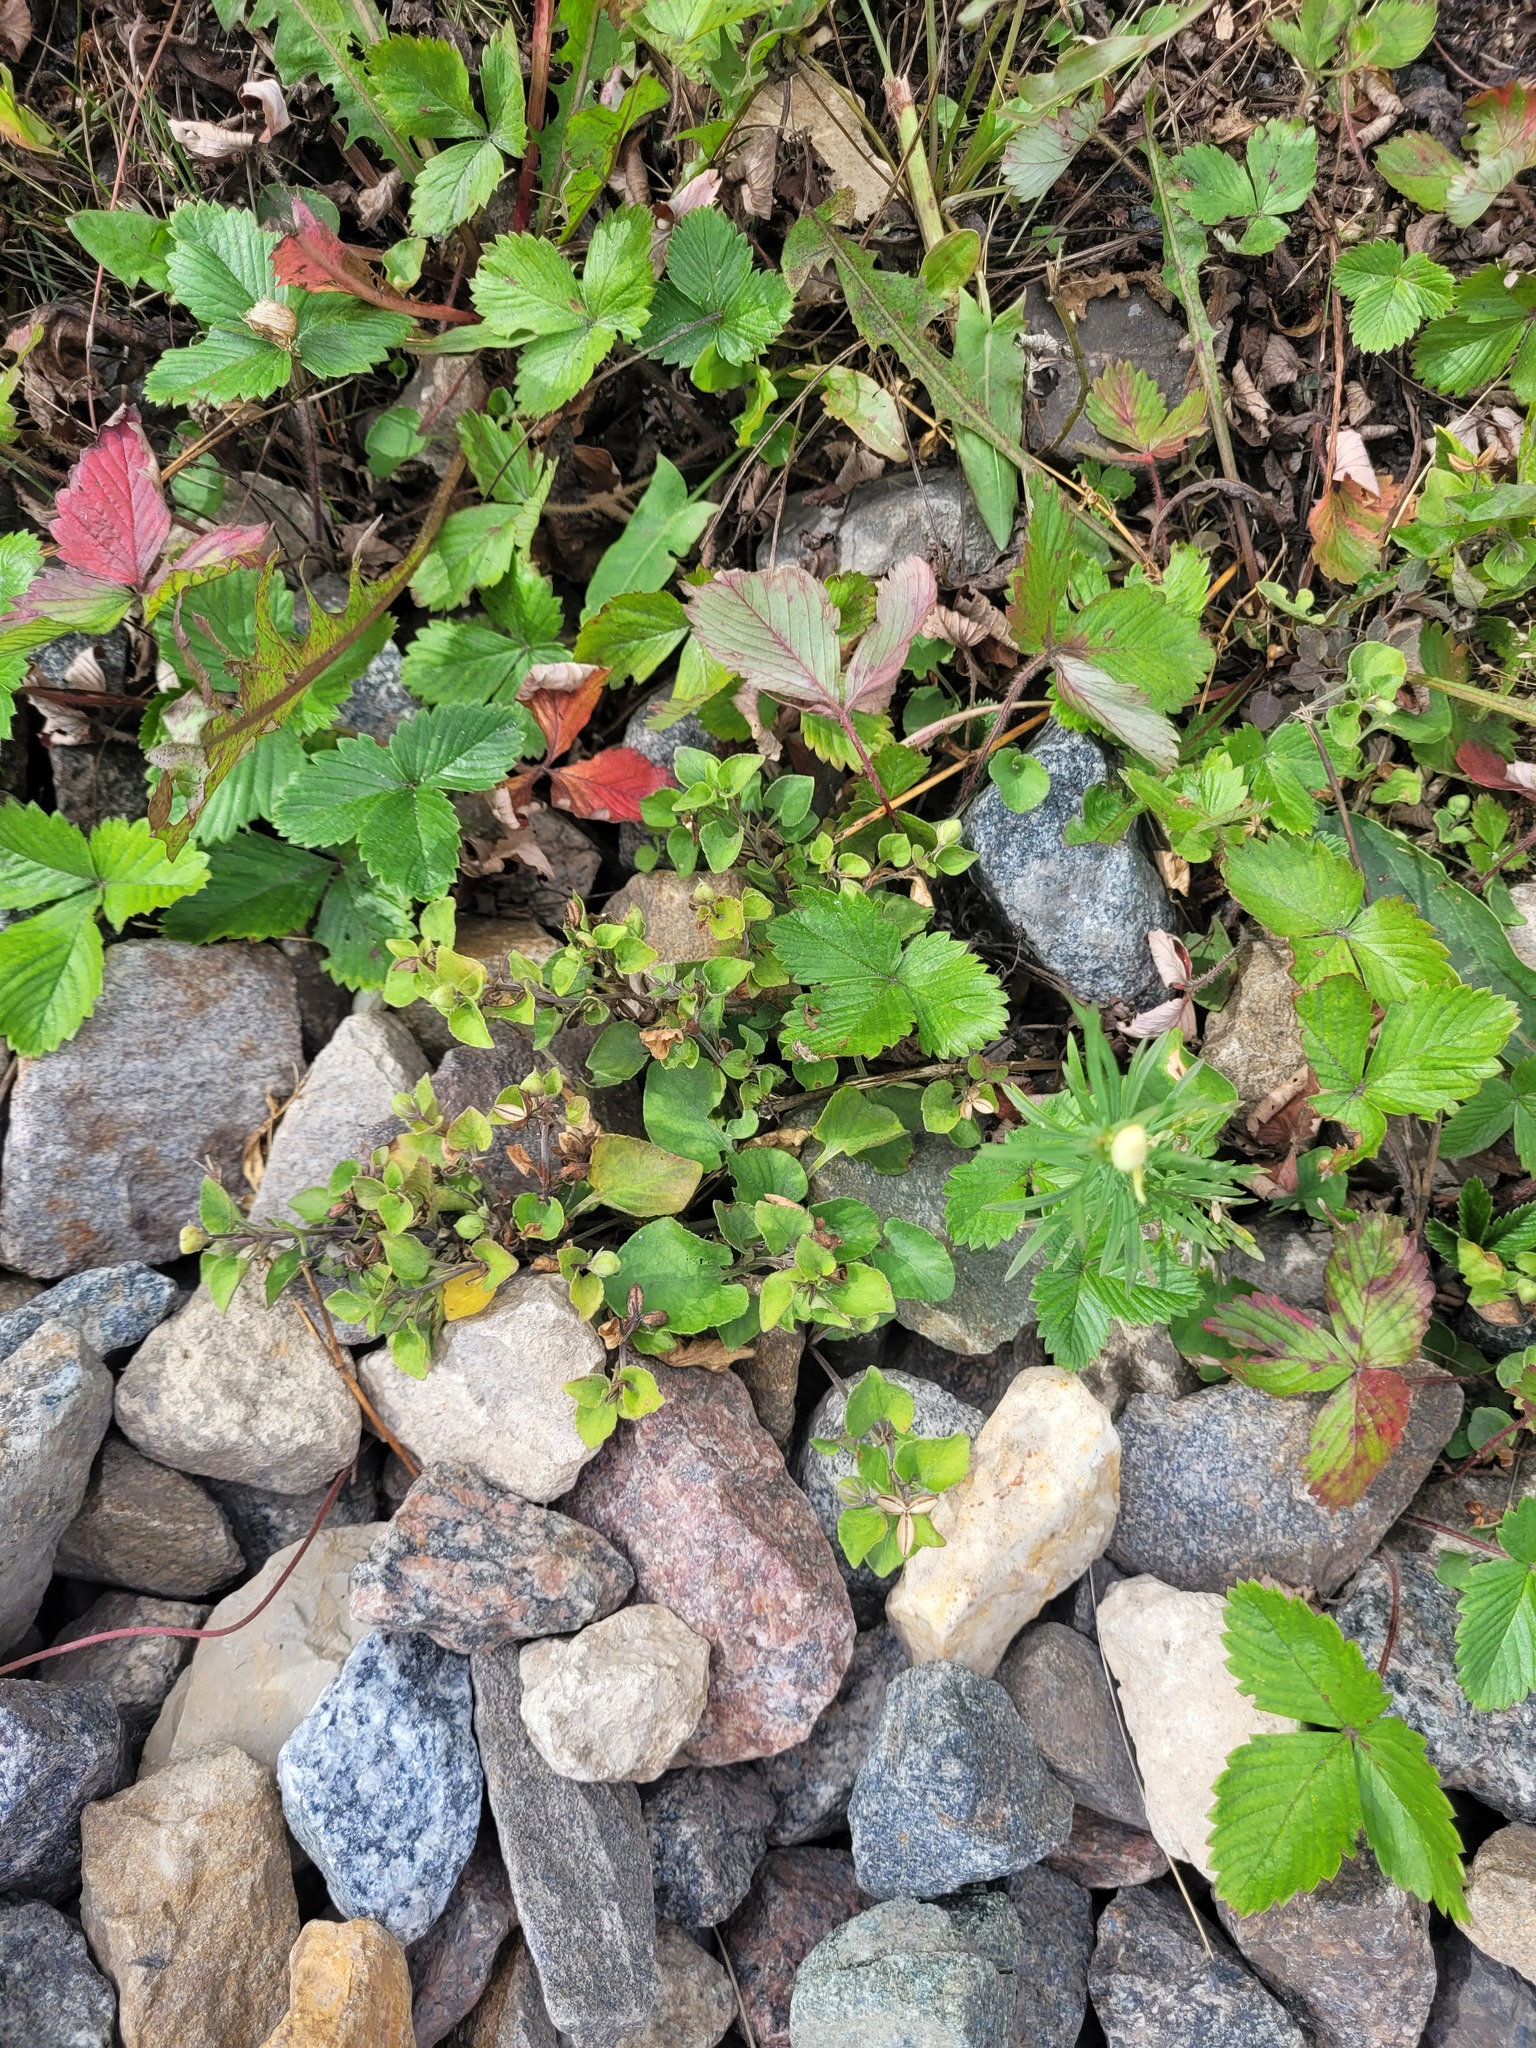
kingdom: Plantae
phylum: Tracheophyta
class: Magnoliopsida
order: Malpighiales
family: Violaceae
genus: Viola
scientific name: Viola rupestris
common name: Teesdale violet
